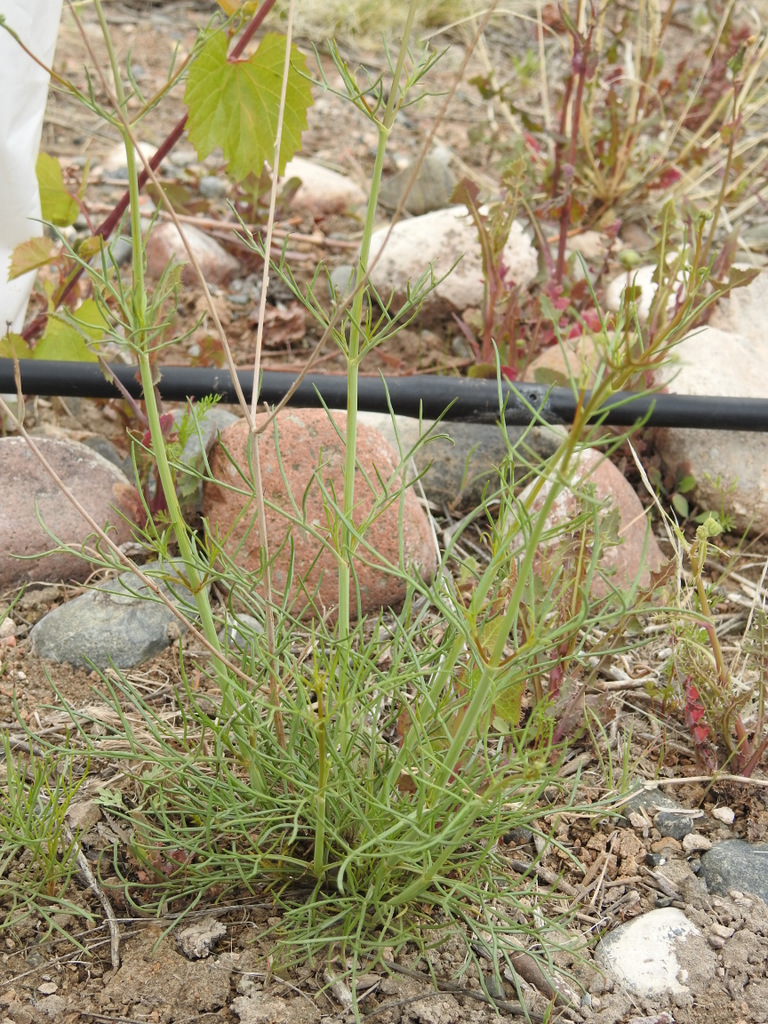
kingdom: Plantae
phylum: Tracheophyta
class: Magnoliopsida
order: Asterales
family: Asteraceae
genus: Thelesperma
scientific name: Thelesperma megapotamicum
